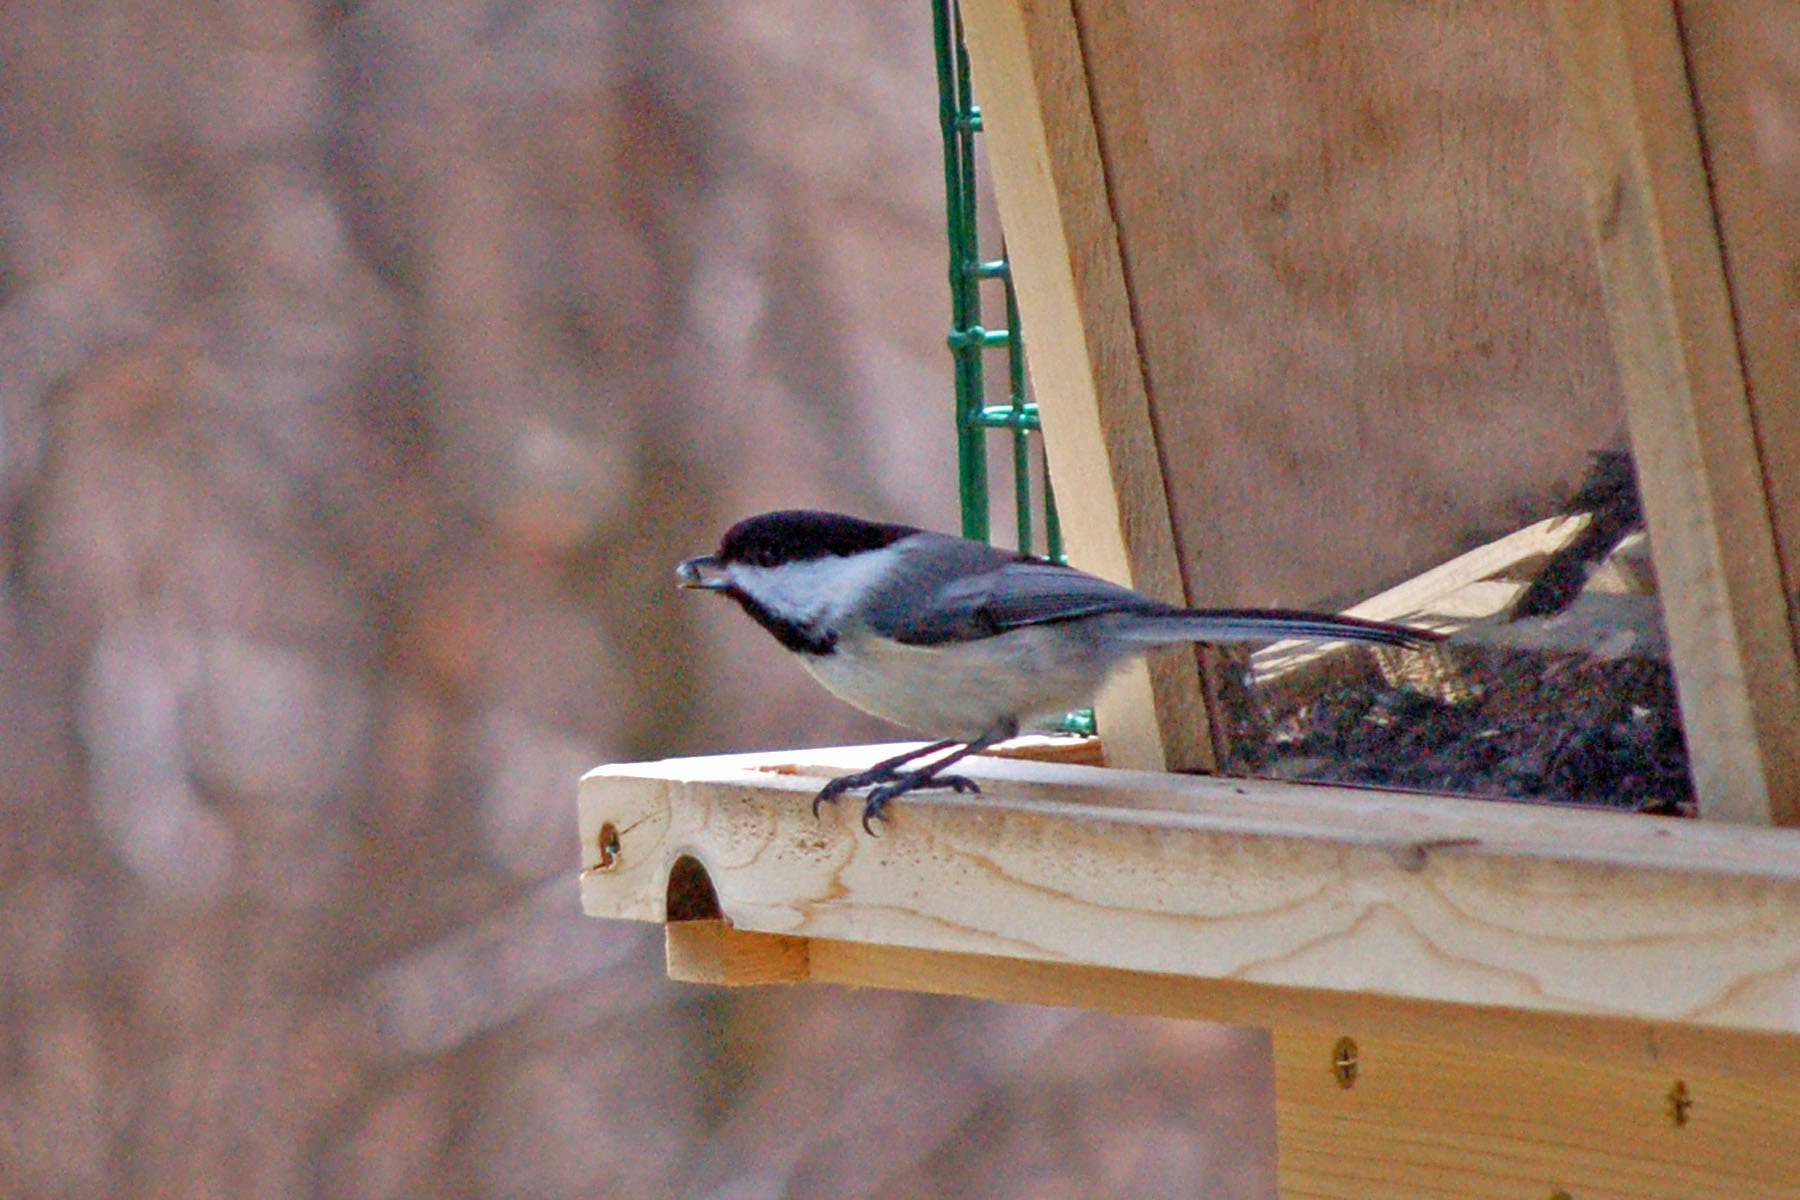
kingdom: Animalia
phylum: Chordata
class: Aves
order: Passeriformes
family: Paridae
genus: Poecile
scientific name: Poecile atricapillus
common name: Black-capped chickadee
